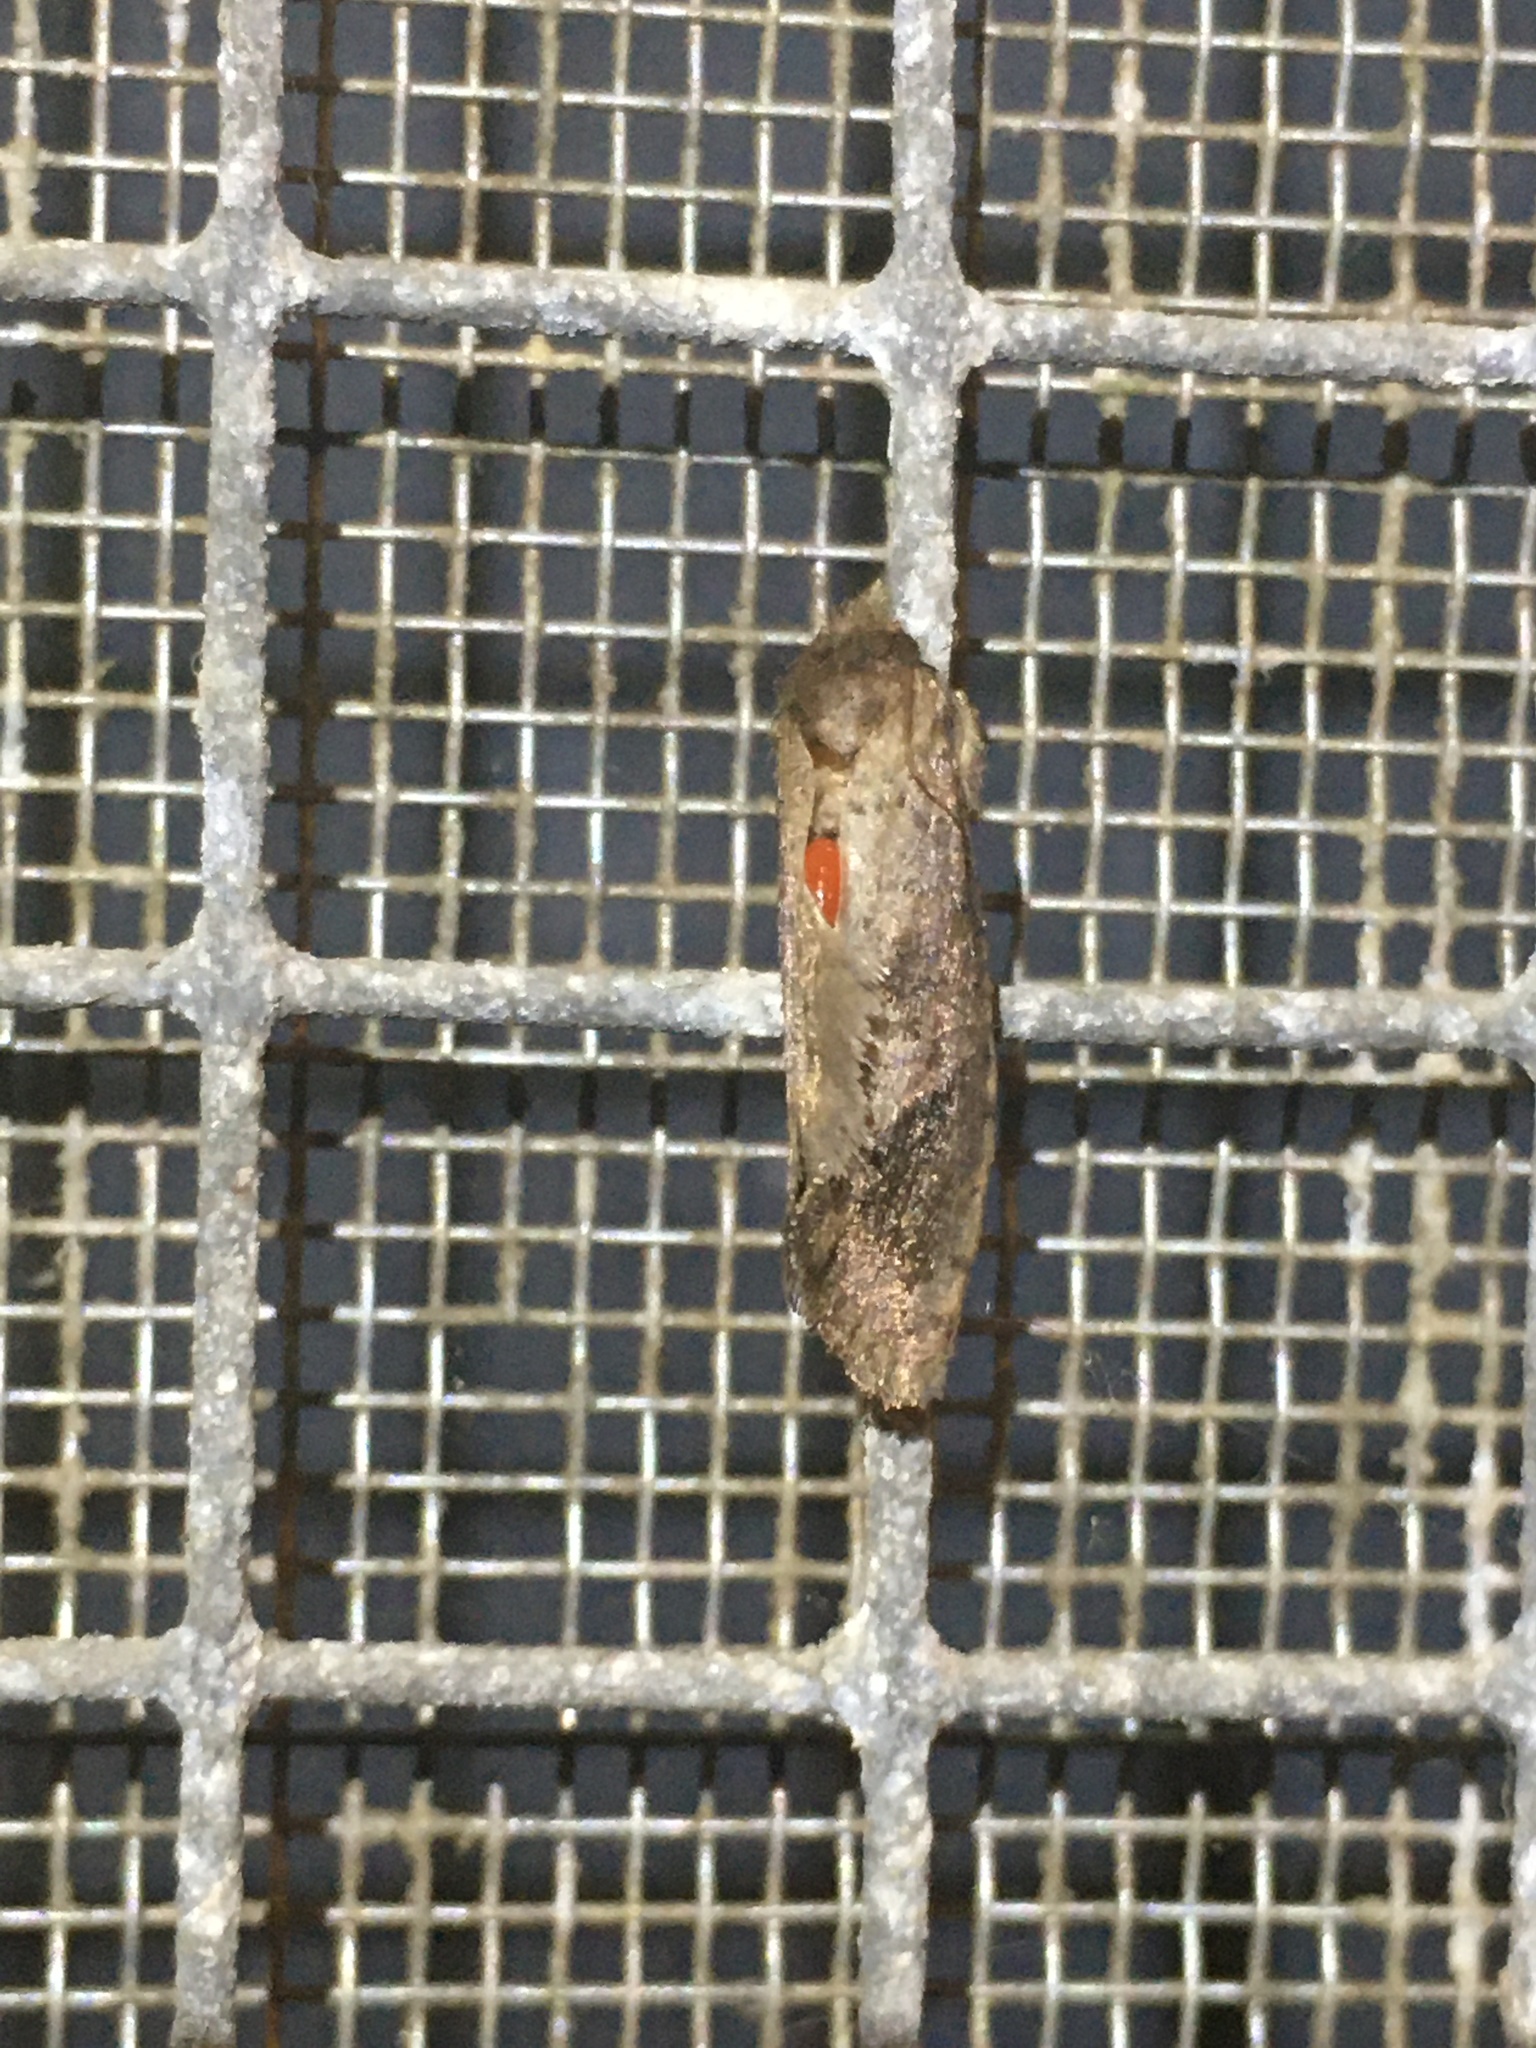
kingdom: Animalia
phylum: Arthropoda
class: Insecta
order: Lepidoptera
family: Tineidae
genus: Acrolophus
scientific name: Acrolophus texanella
